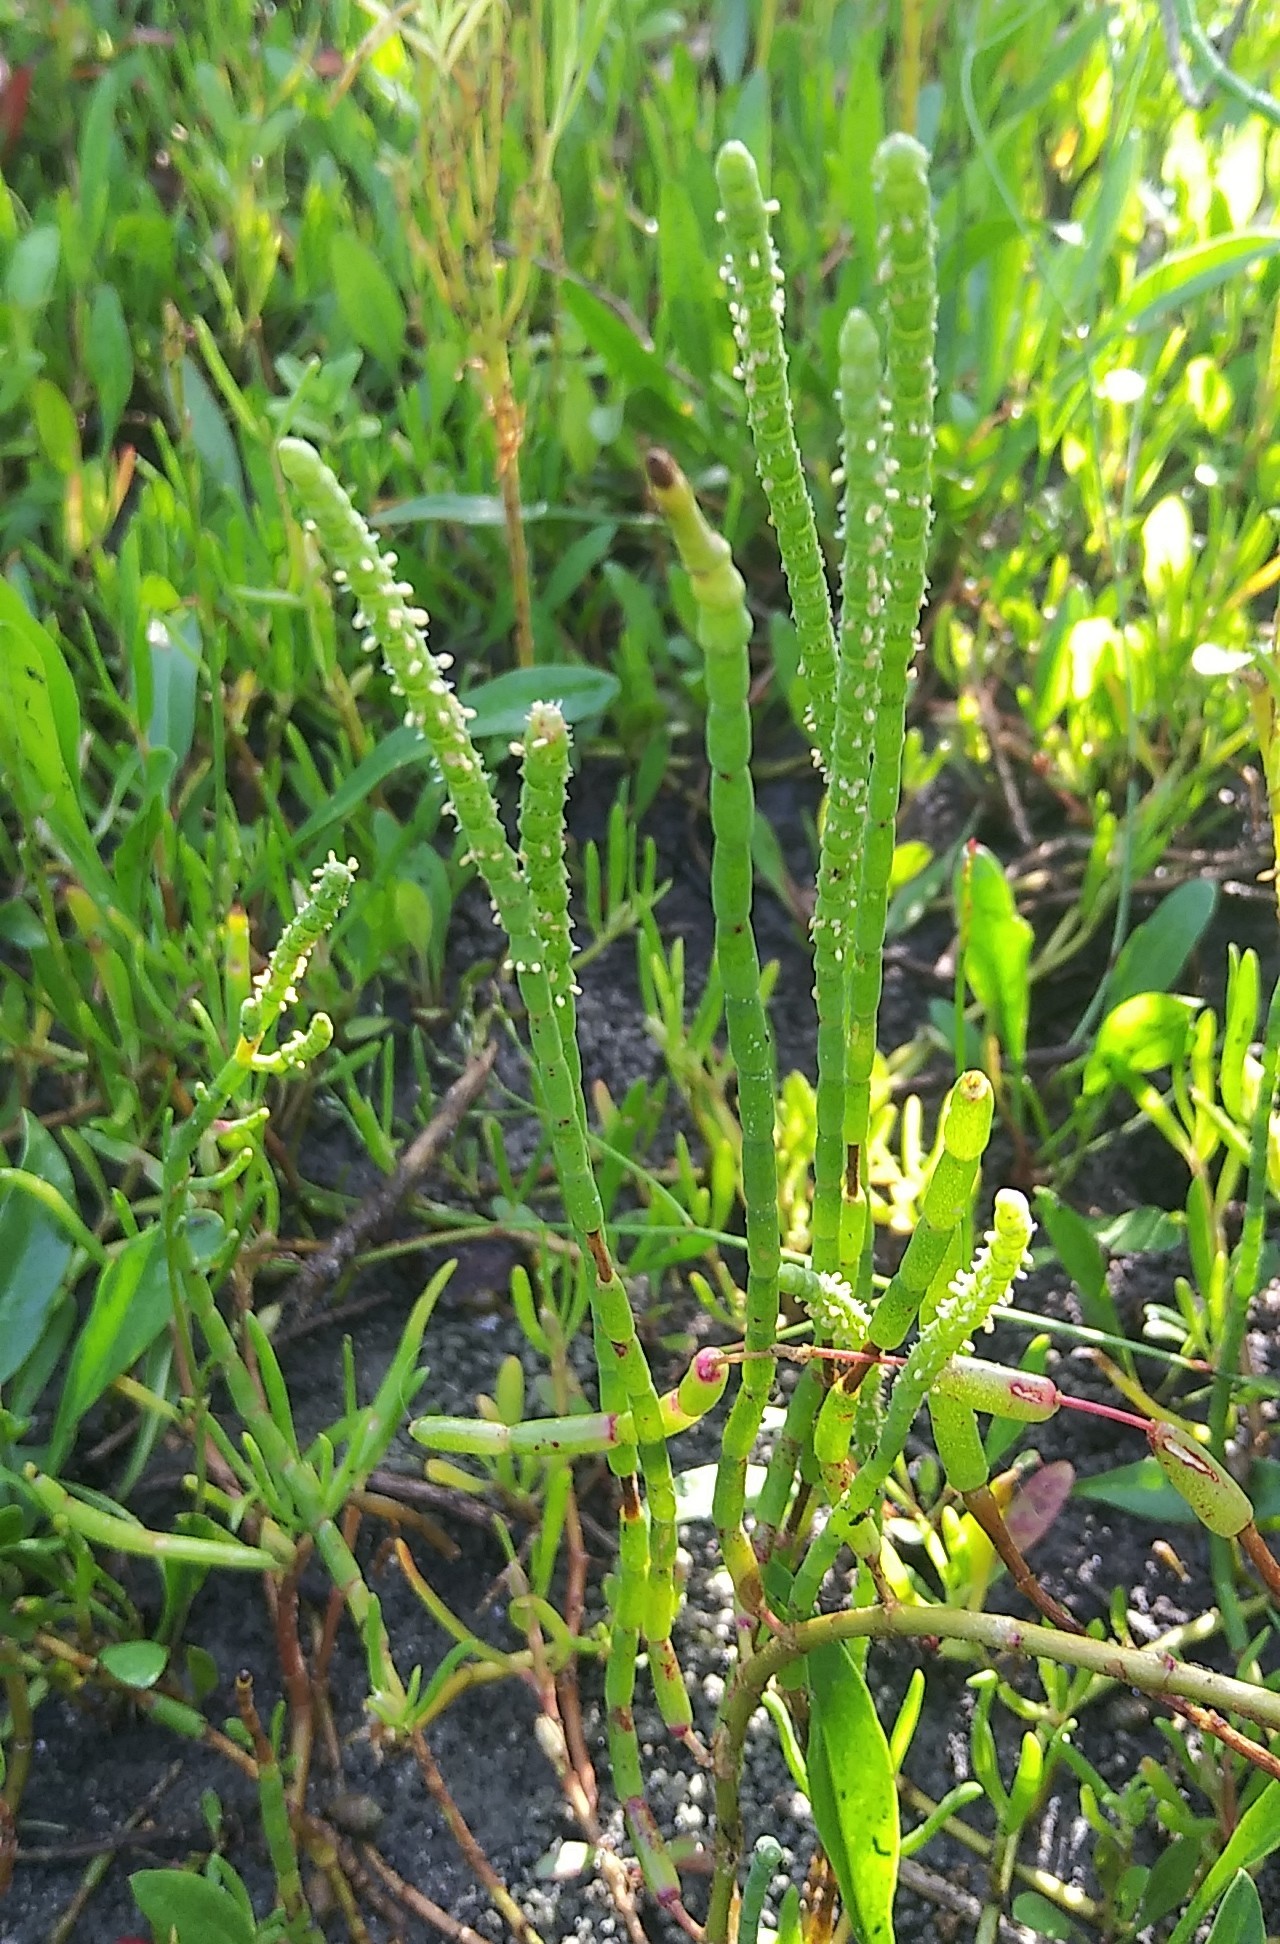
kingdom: Plantae
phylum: Tracheophyta
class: Magnoliopsida
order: Caryophyllales
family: Amaranthaceae
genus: Salicornia
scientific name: Salicornia ambigua
